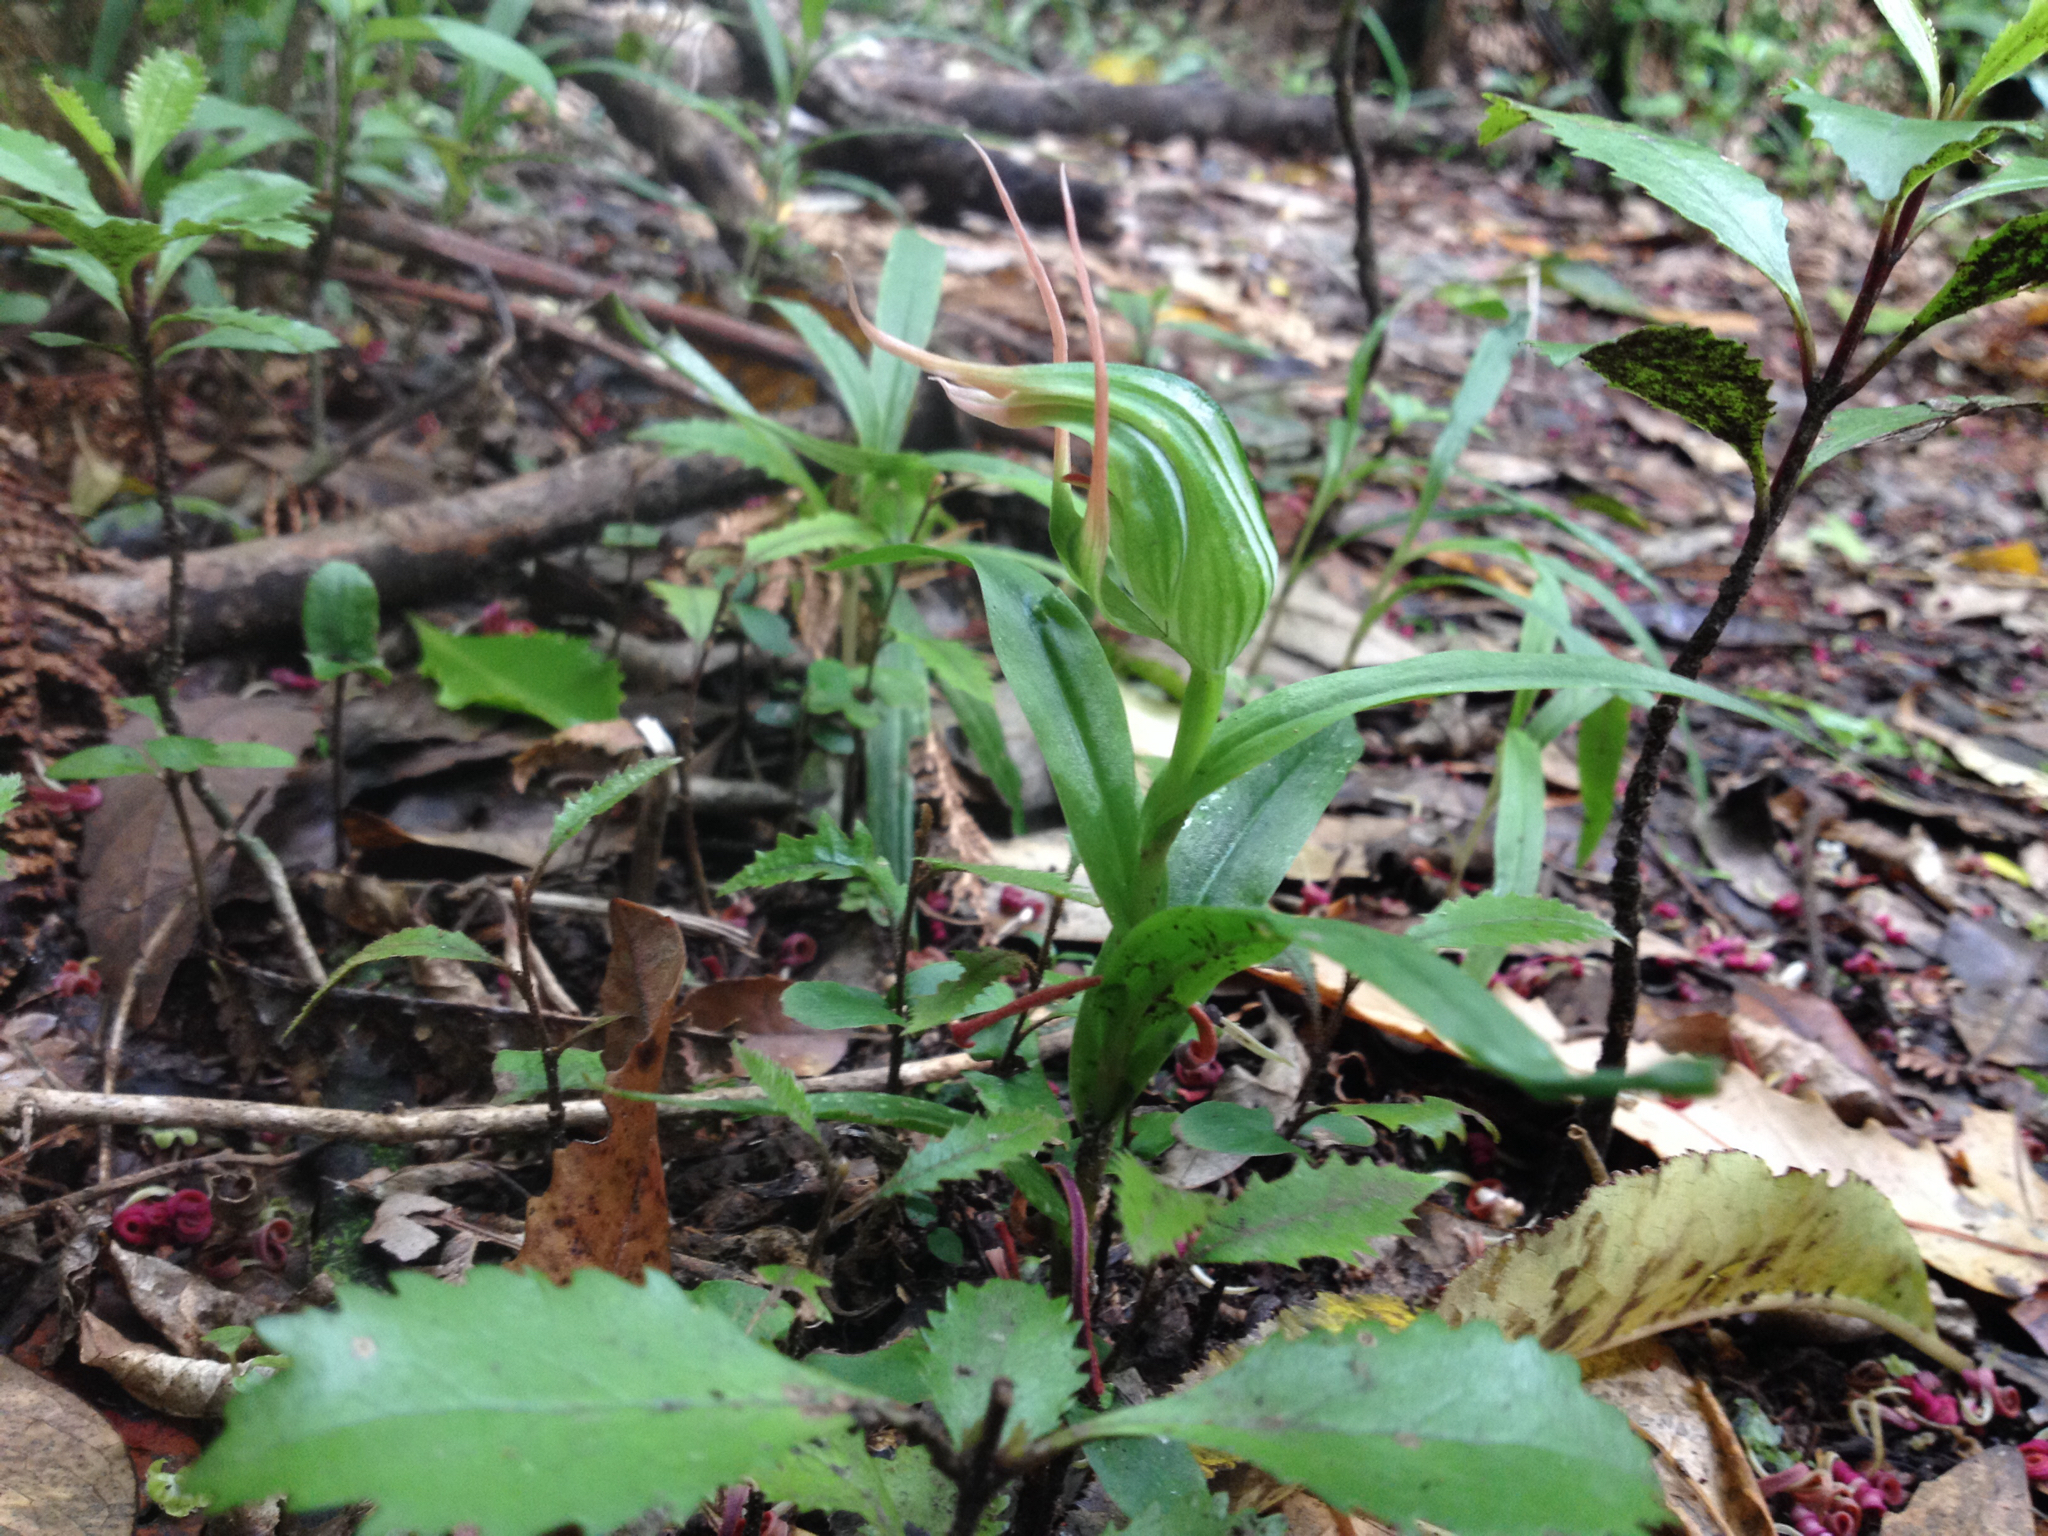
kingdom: Plantae
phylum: Tracheophyta
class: Liliopsida
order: Asparagales
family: Orchidaceae
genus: Pterostylis
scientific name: Pterostylis banksii
